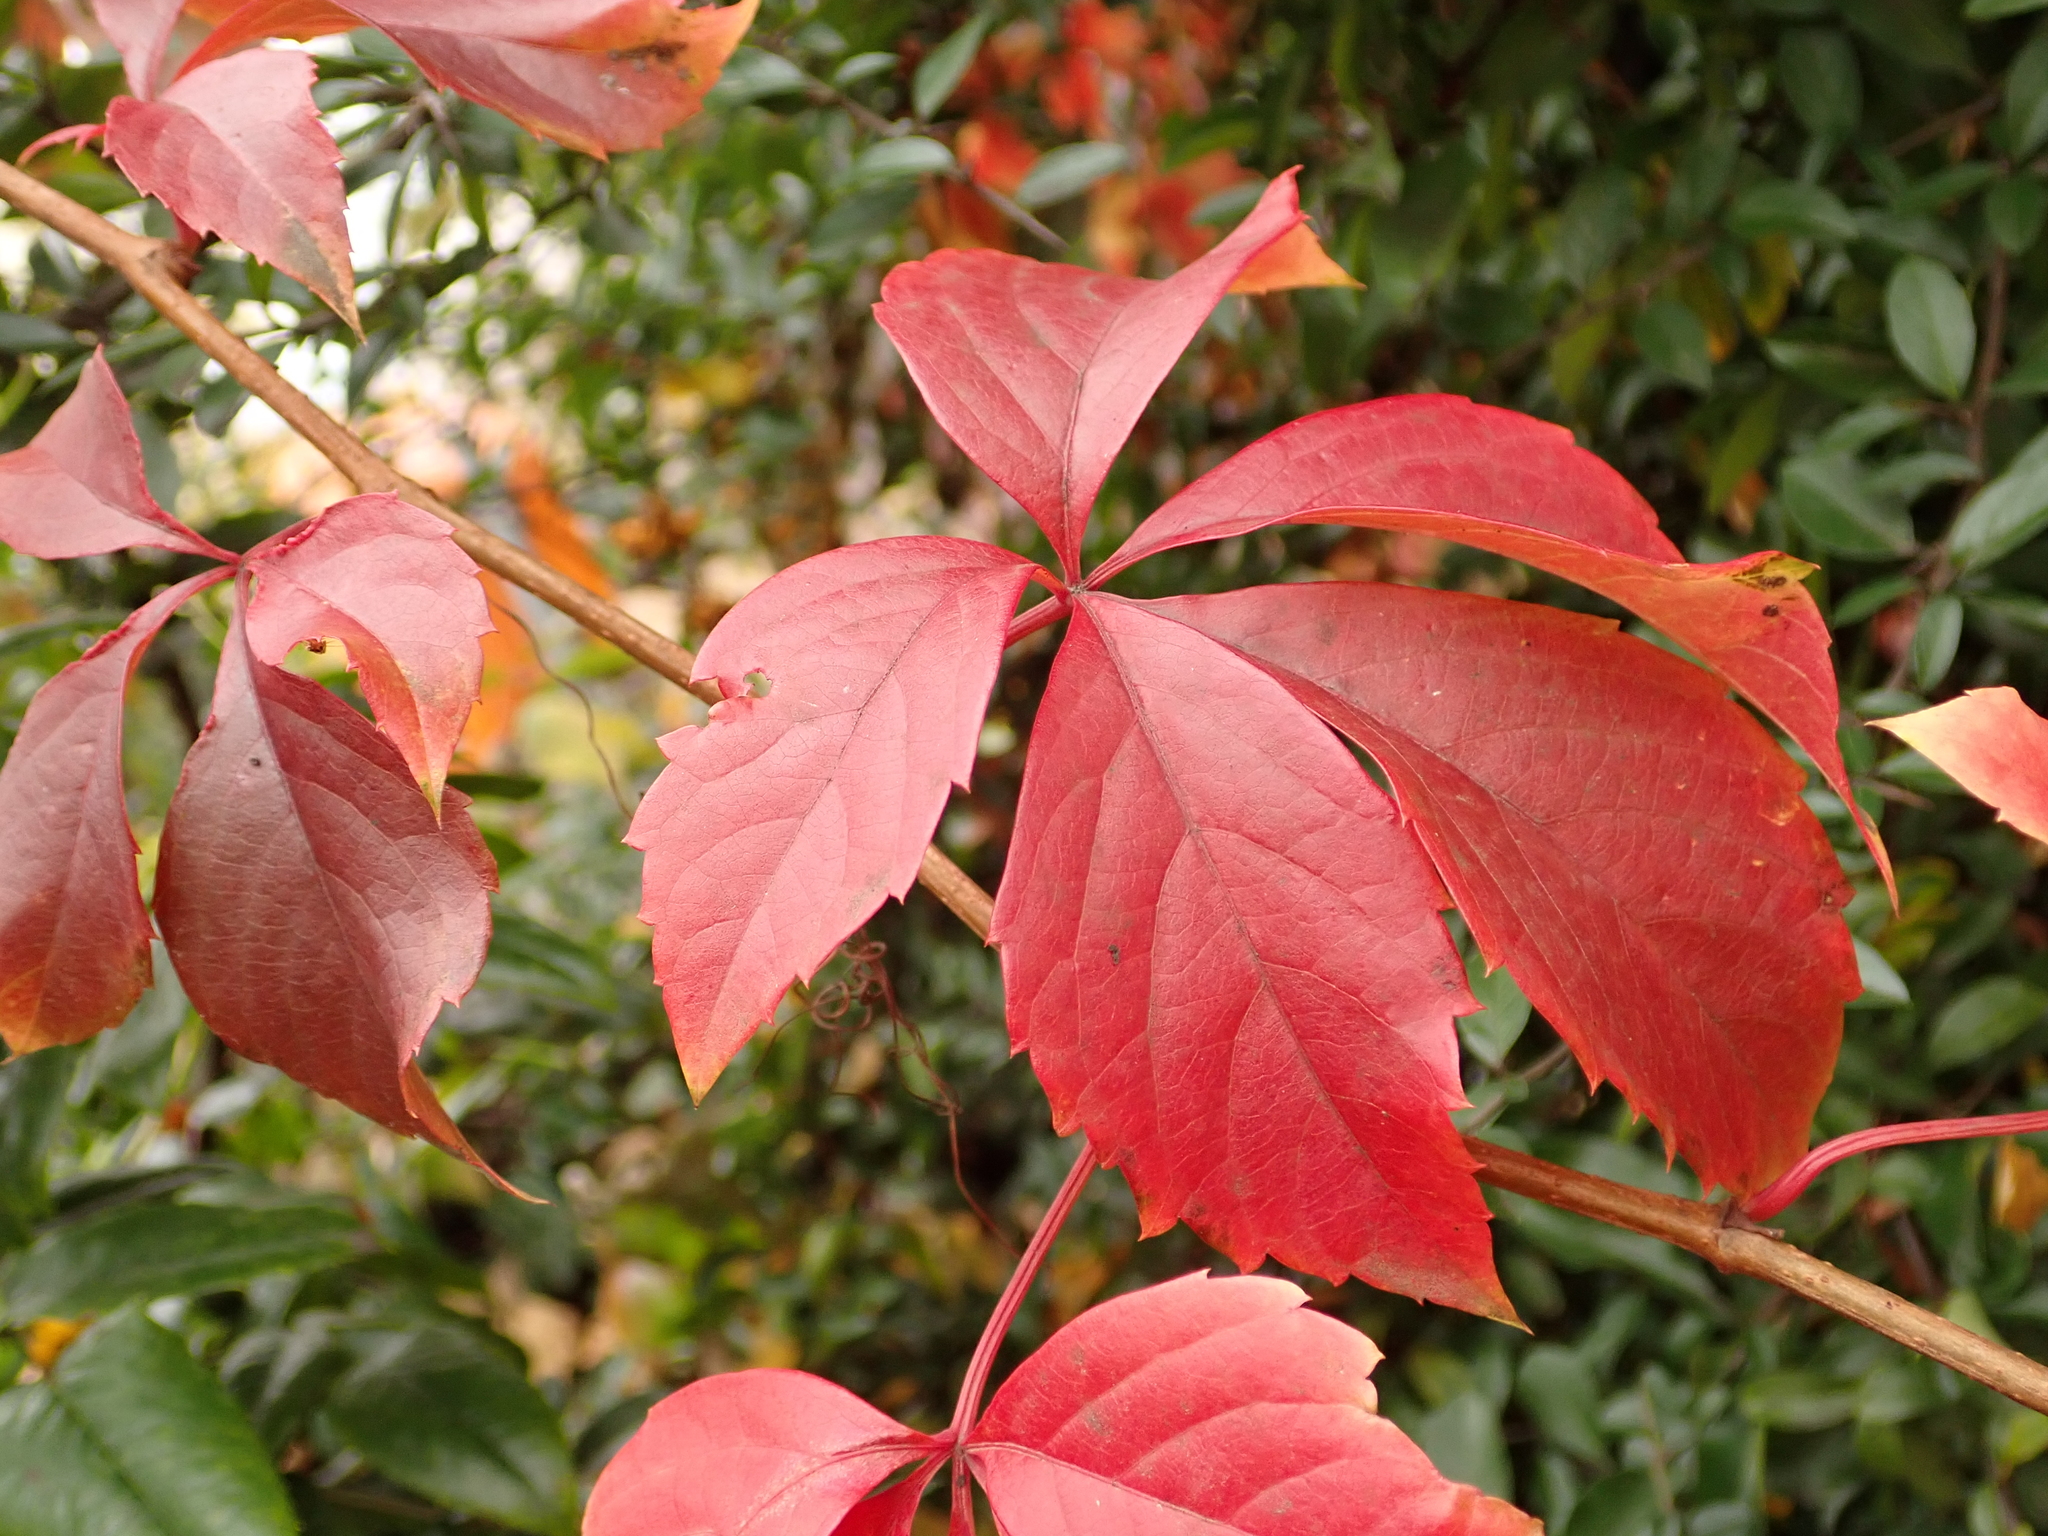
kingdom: Plantae
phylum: Tracheophyta
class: Magnoliopsida
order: Vitales
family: Vitaceae
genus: Parthenocissus
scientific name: Parthenocissus inserta
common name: False virginia-creeper
